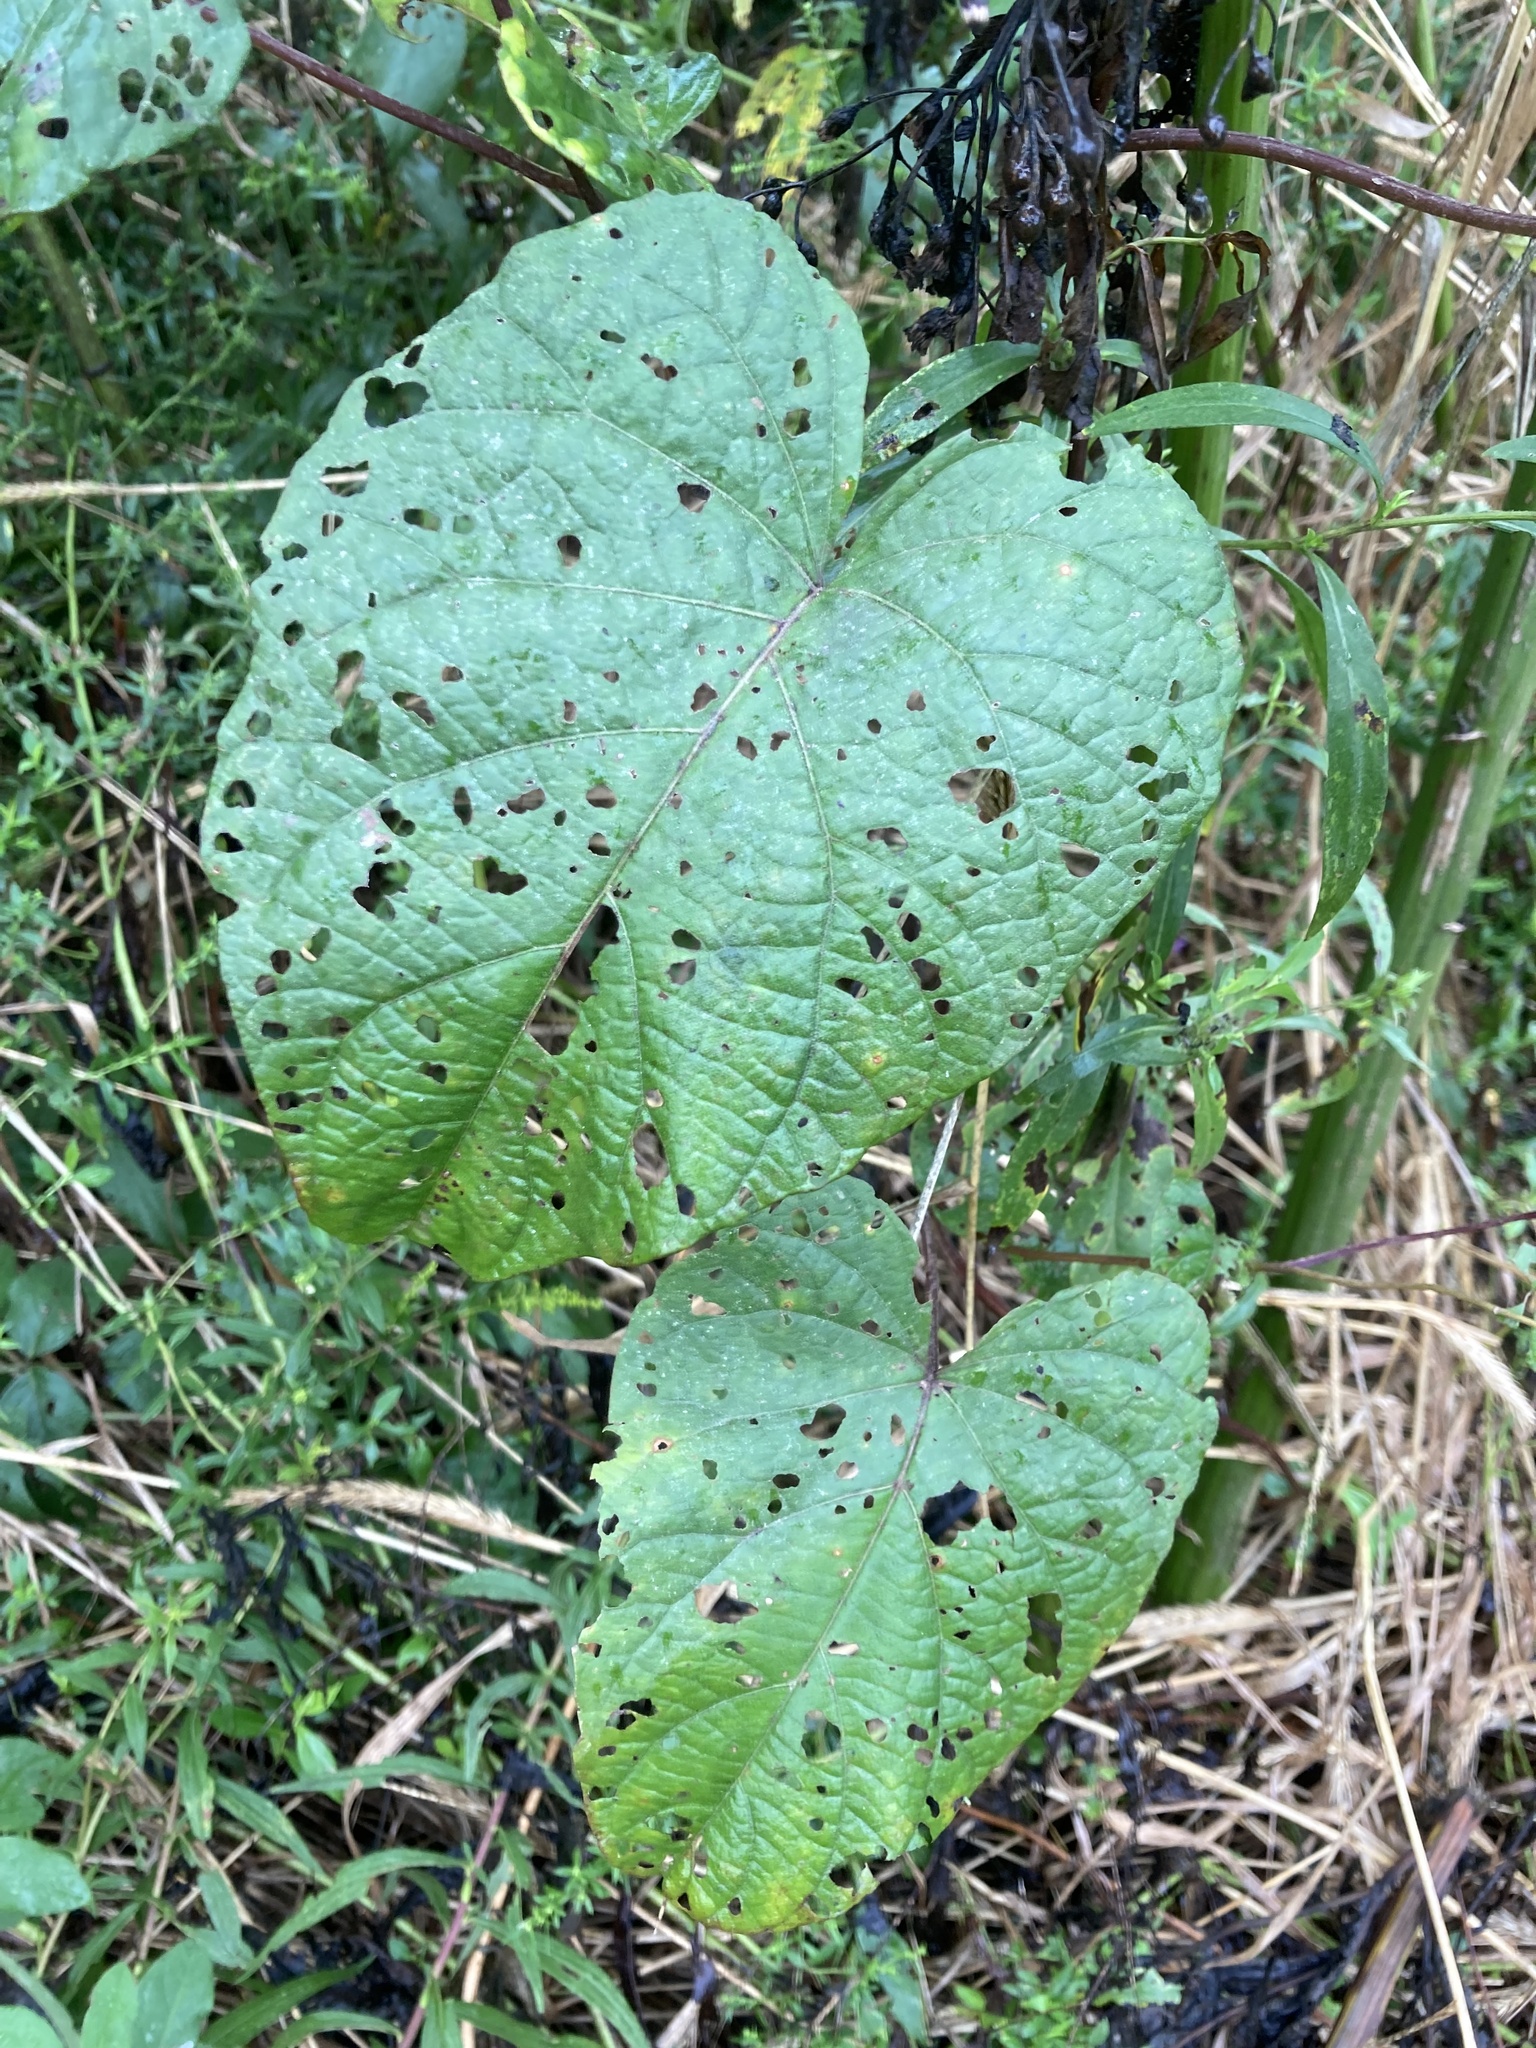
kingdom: Plantae
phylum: Tracheophyta
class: Magnoliopsida
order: Solanales
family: Convolvulaceae
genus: Ipomoea
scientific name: Ipomoea pandurata
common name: Man-of-the-earth
